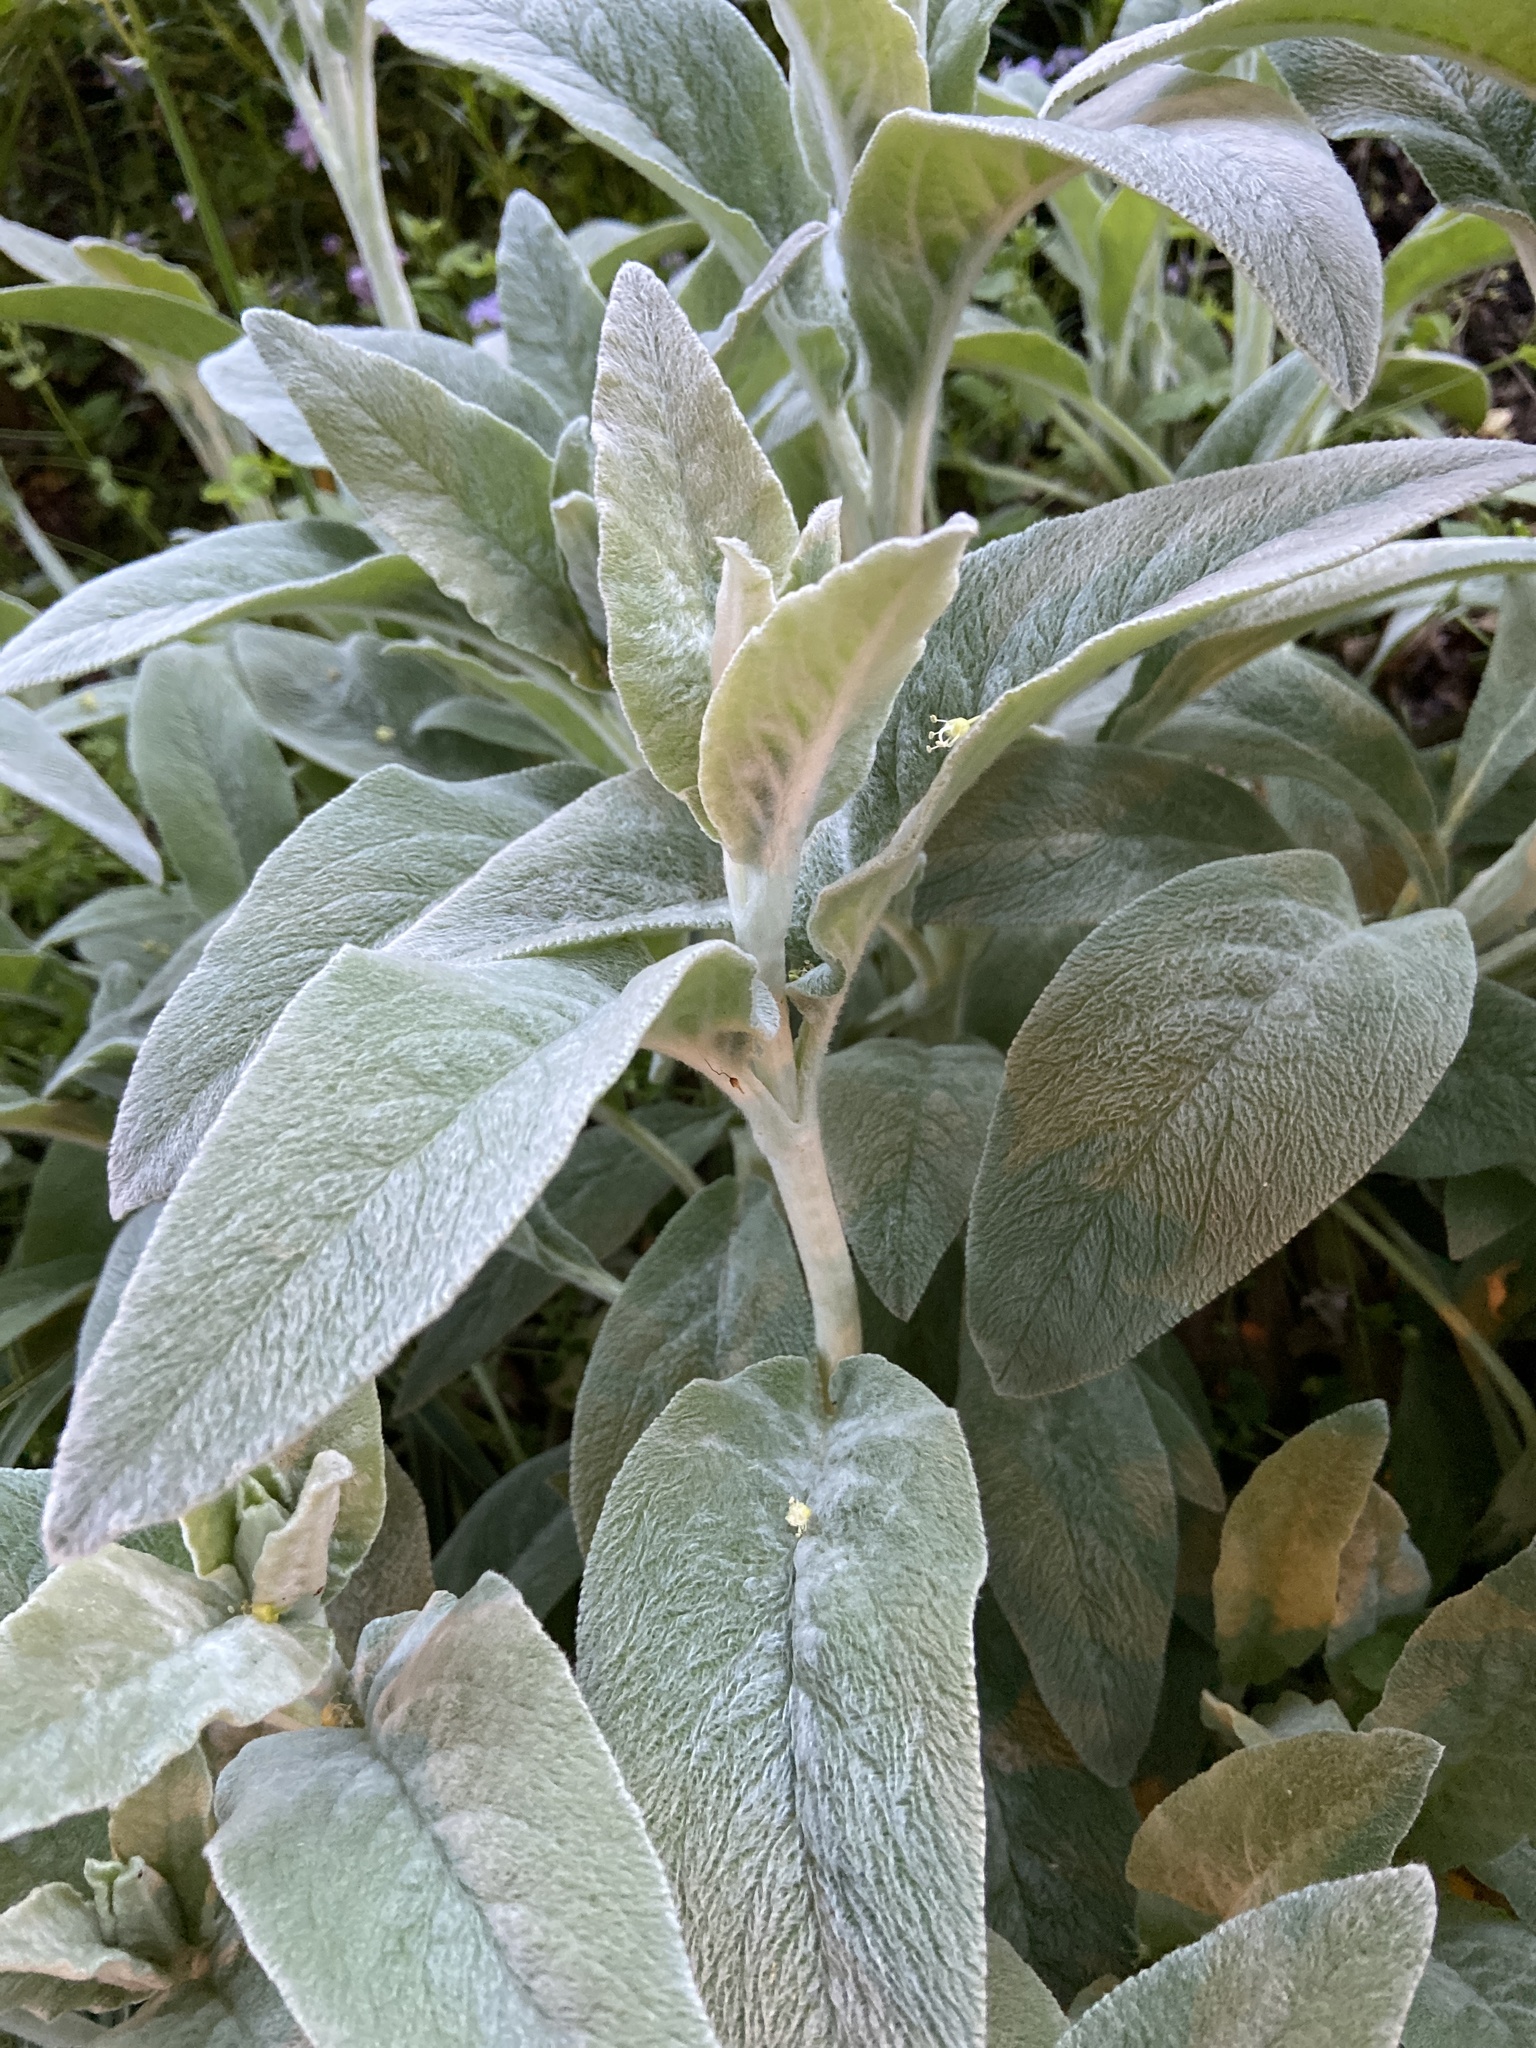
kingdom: Plantae
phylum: Tracheophyta
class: Magnoliopsida
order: Lamiales
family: Lamiaceae
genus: Stachys
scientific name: Stachys byzantina
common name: Lamb's-ear
